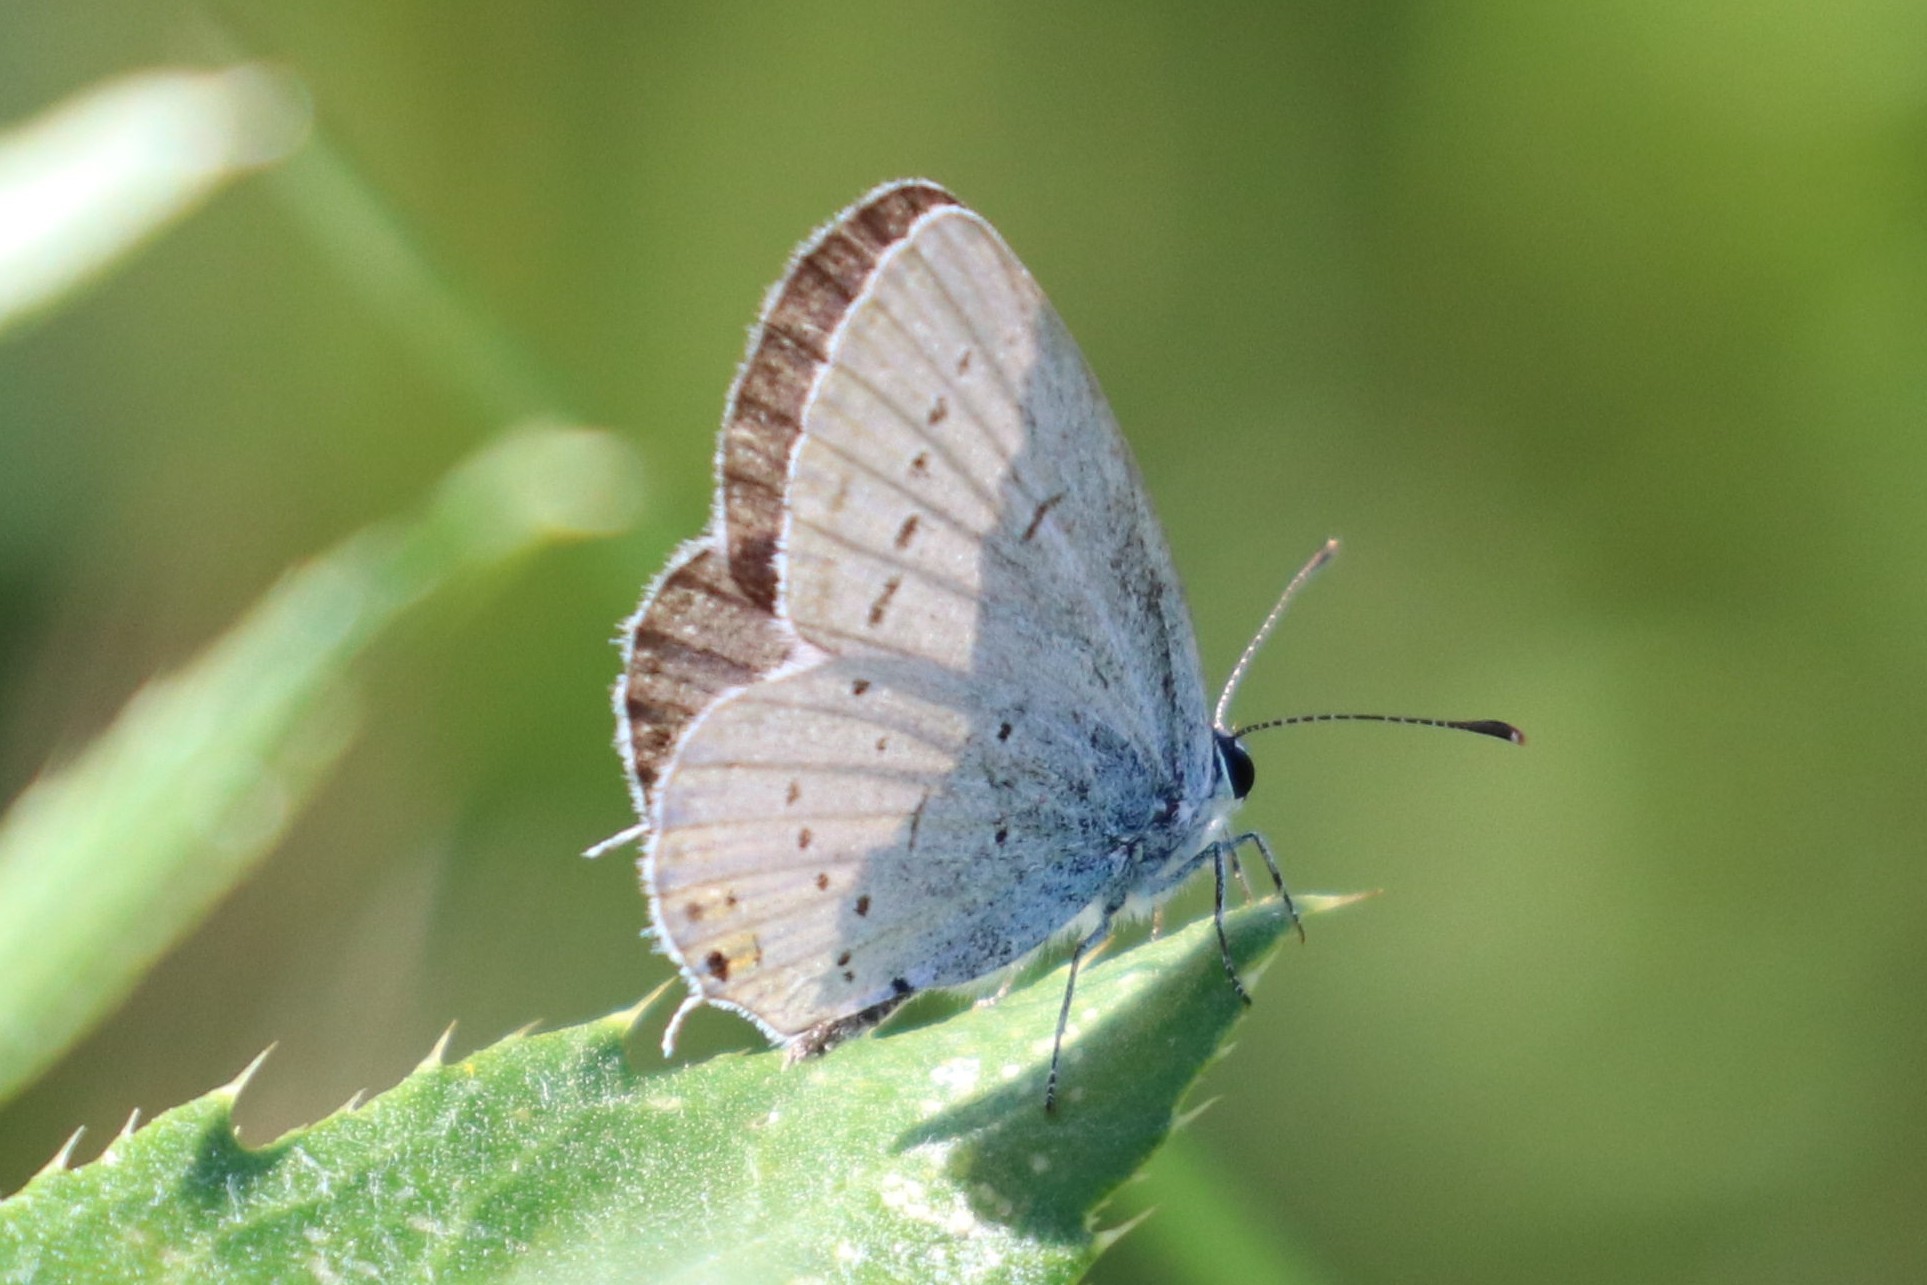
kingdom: Animalia
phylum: Arthropoda
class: Insecta
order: Lepidoptera
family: Lycaenidae
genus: Elkalyce
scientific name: Elkalyce argiades
